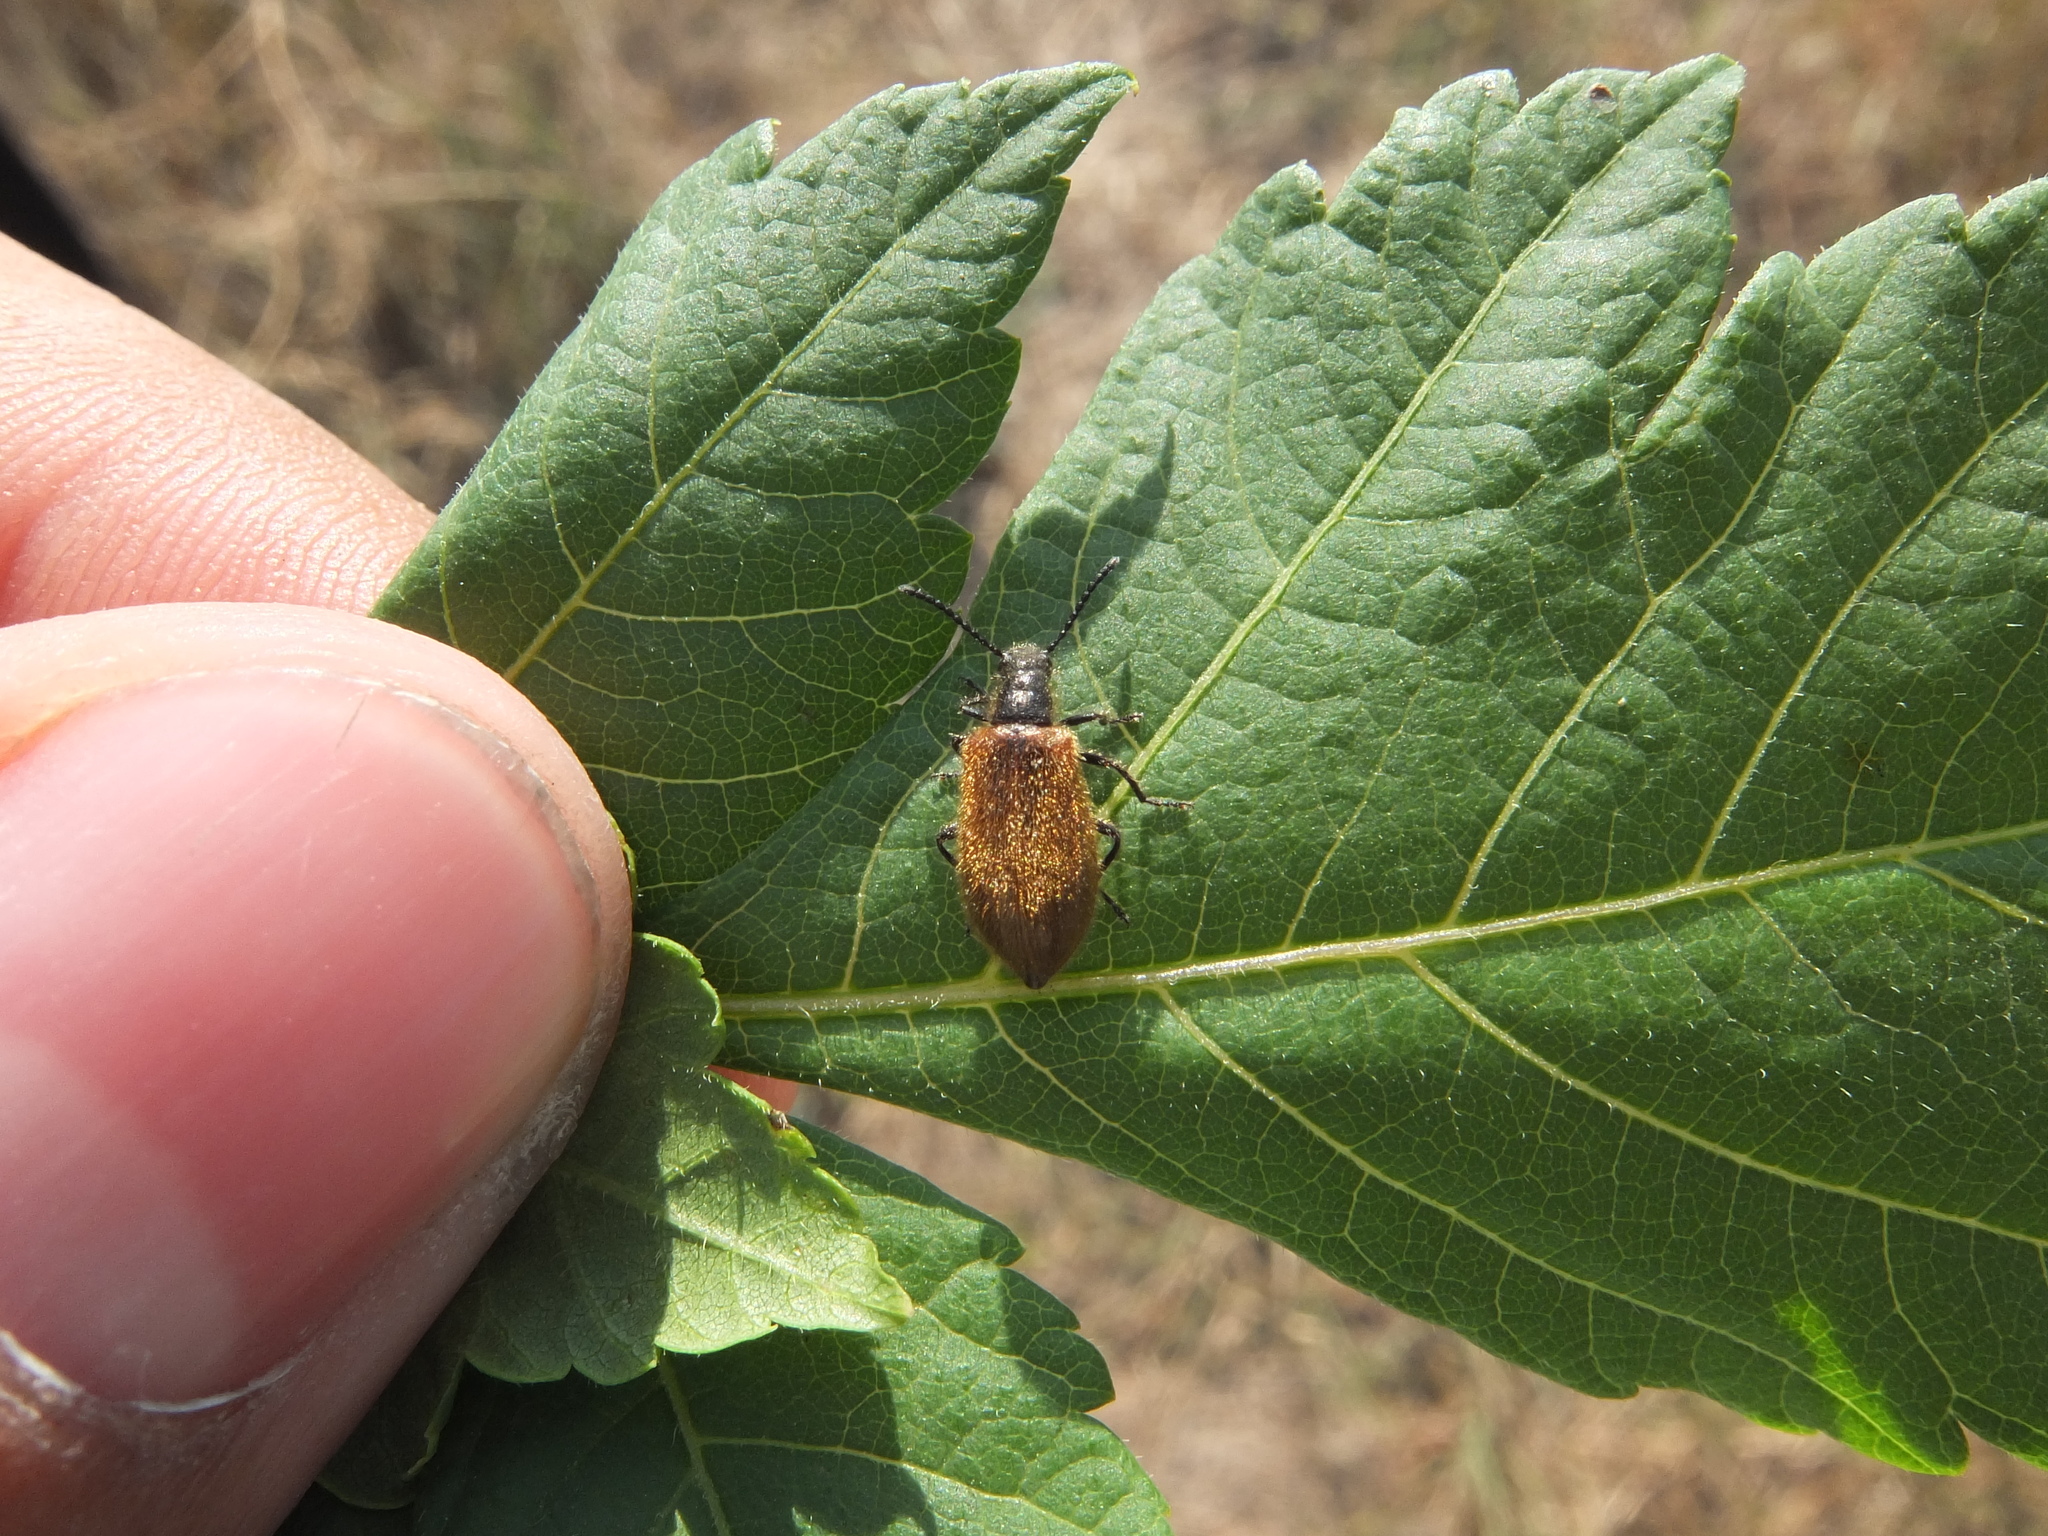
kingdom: Animalia
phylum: Arthropoda
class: Insecta
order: Coleoptera
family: Tenebrionidae
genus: Lagria
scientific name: Lagria hirta
